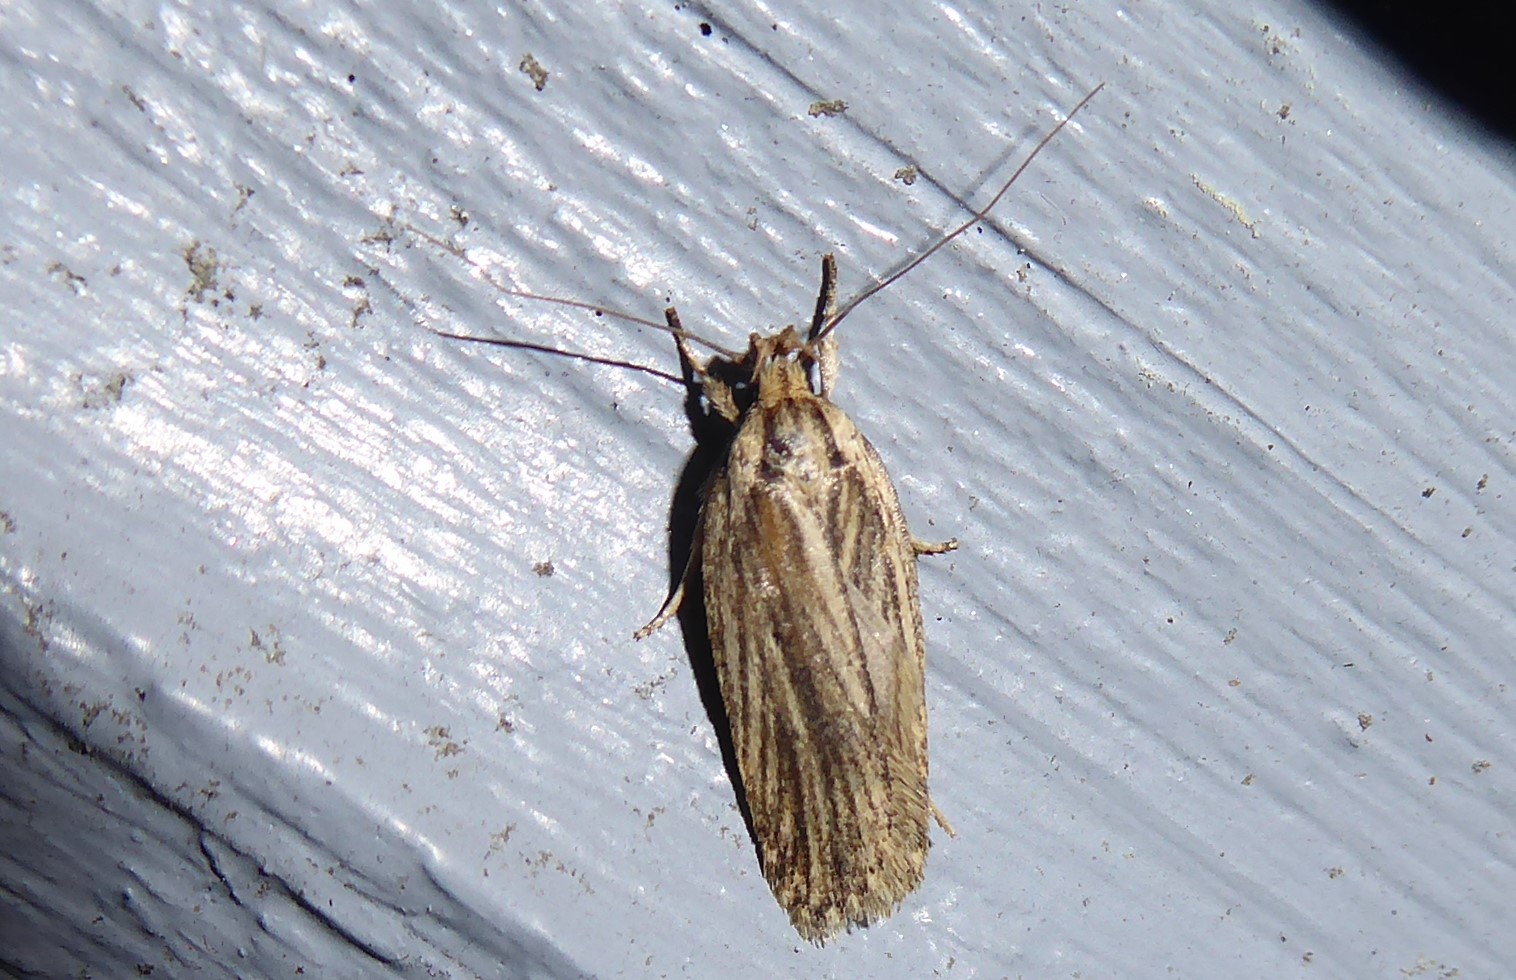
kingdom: Animalia
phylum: Arthropoda
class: Insecta
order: Lepidoptera
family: Depressariidae
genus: Agonopterix
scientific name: Agonopterix
